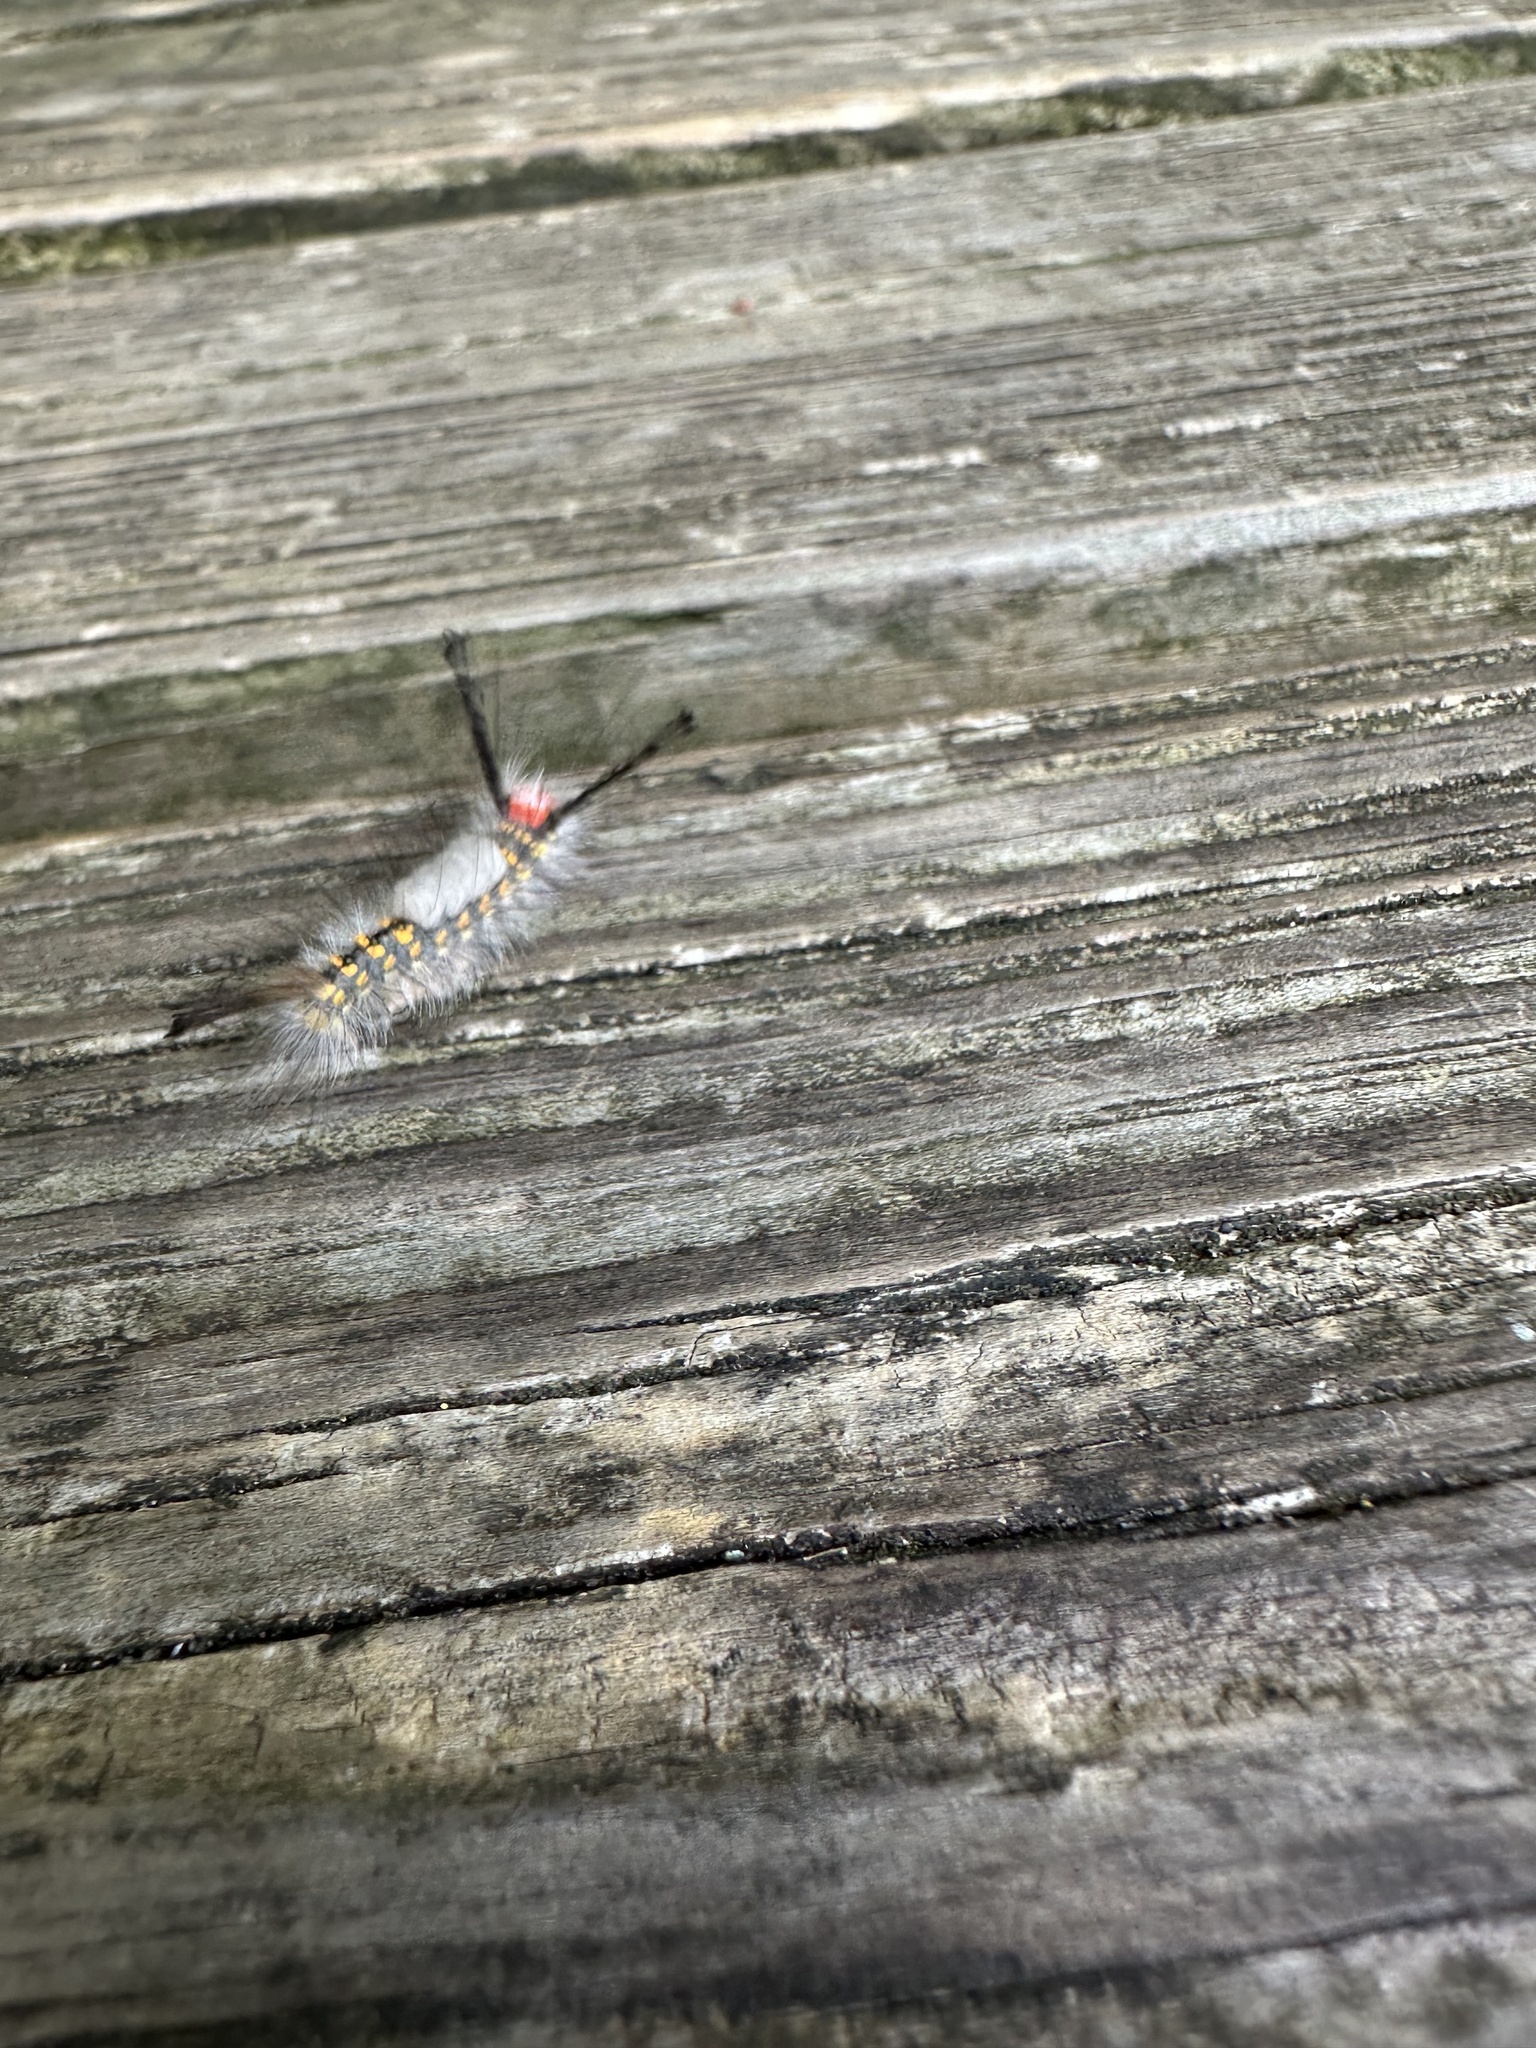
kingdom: Animalia
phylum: Arthropoda
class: Insecta
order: Lepidoptera
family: Erebidae
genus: Orgyia
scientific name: Orgyia detrita
